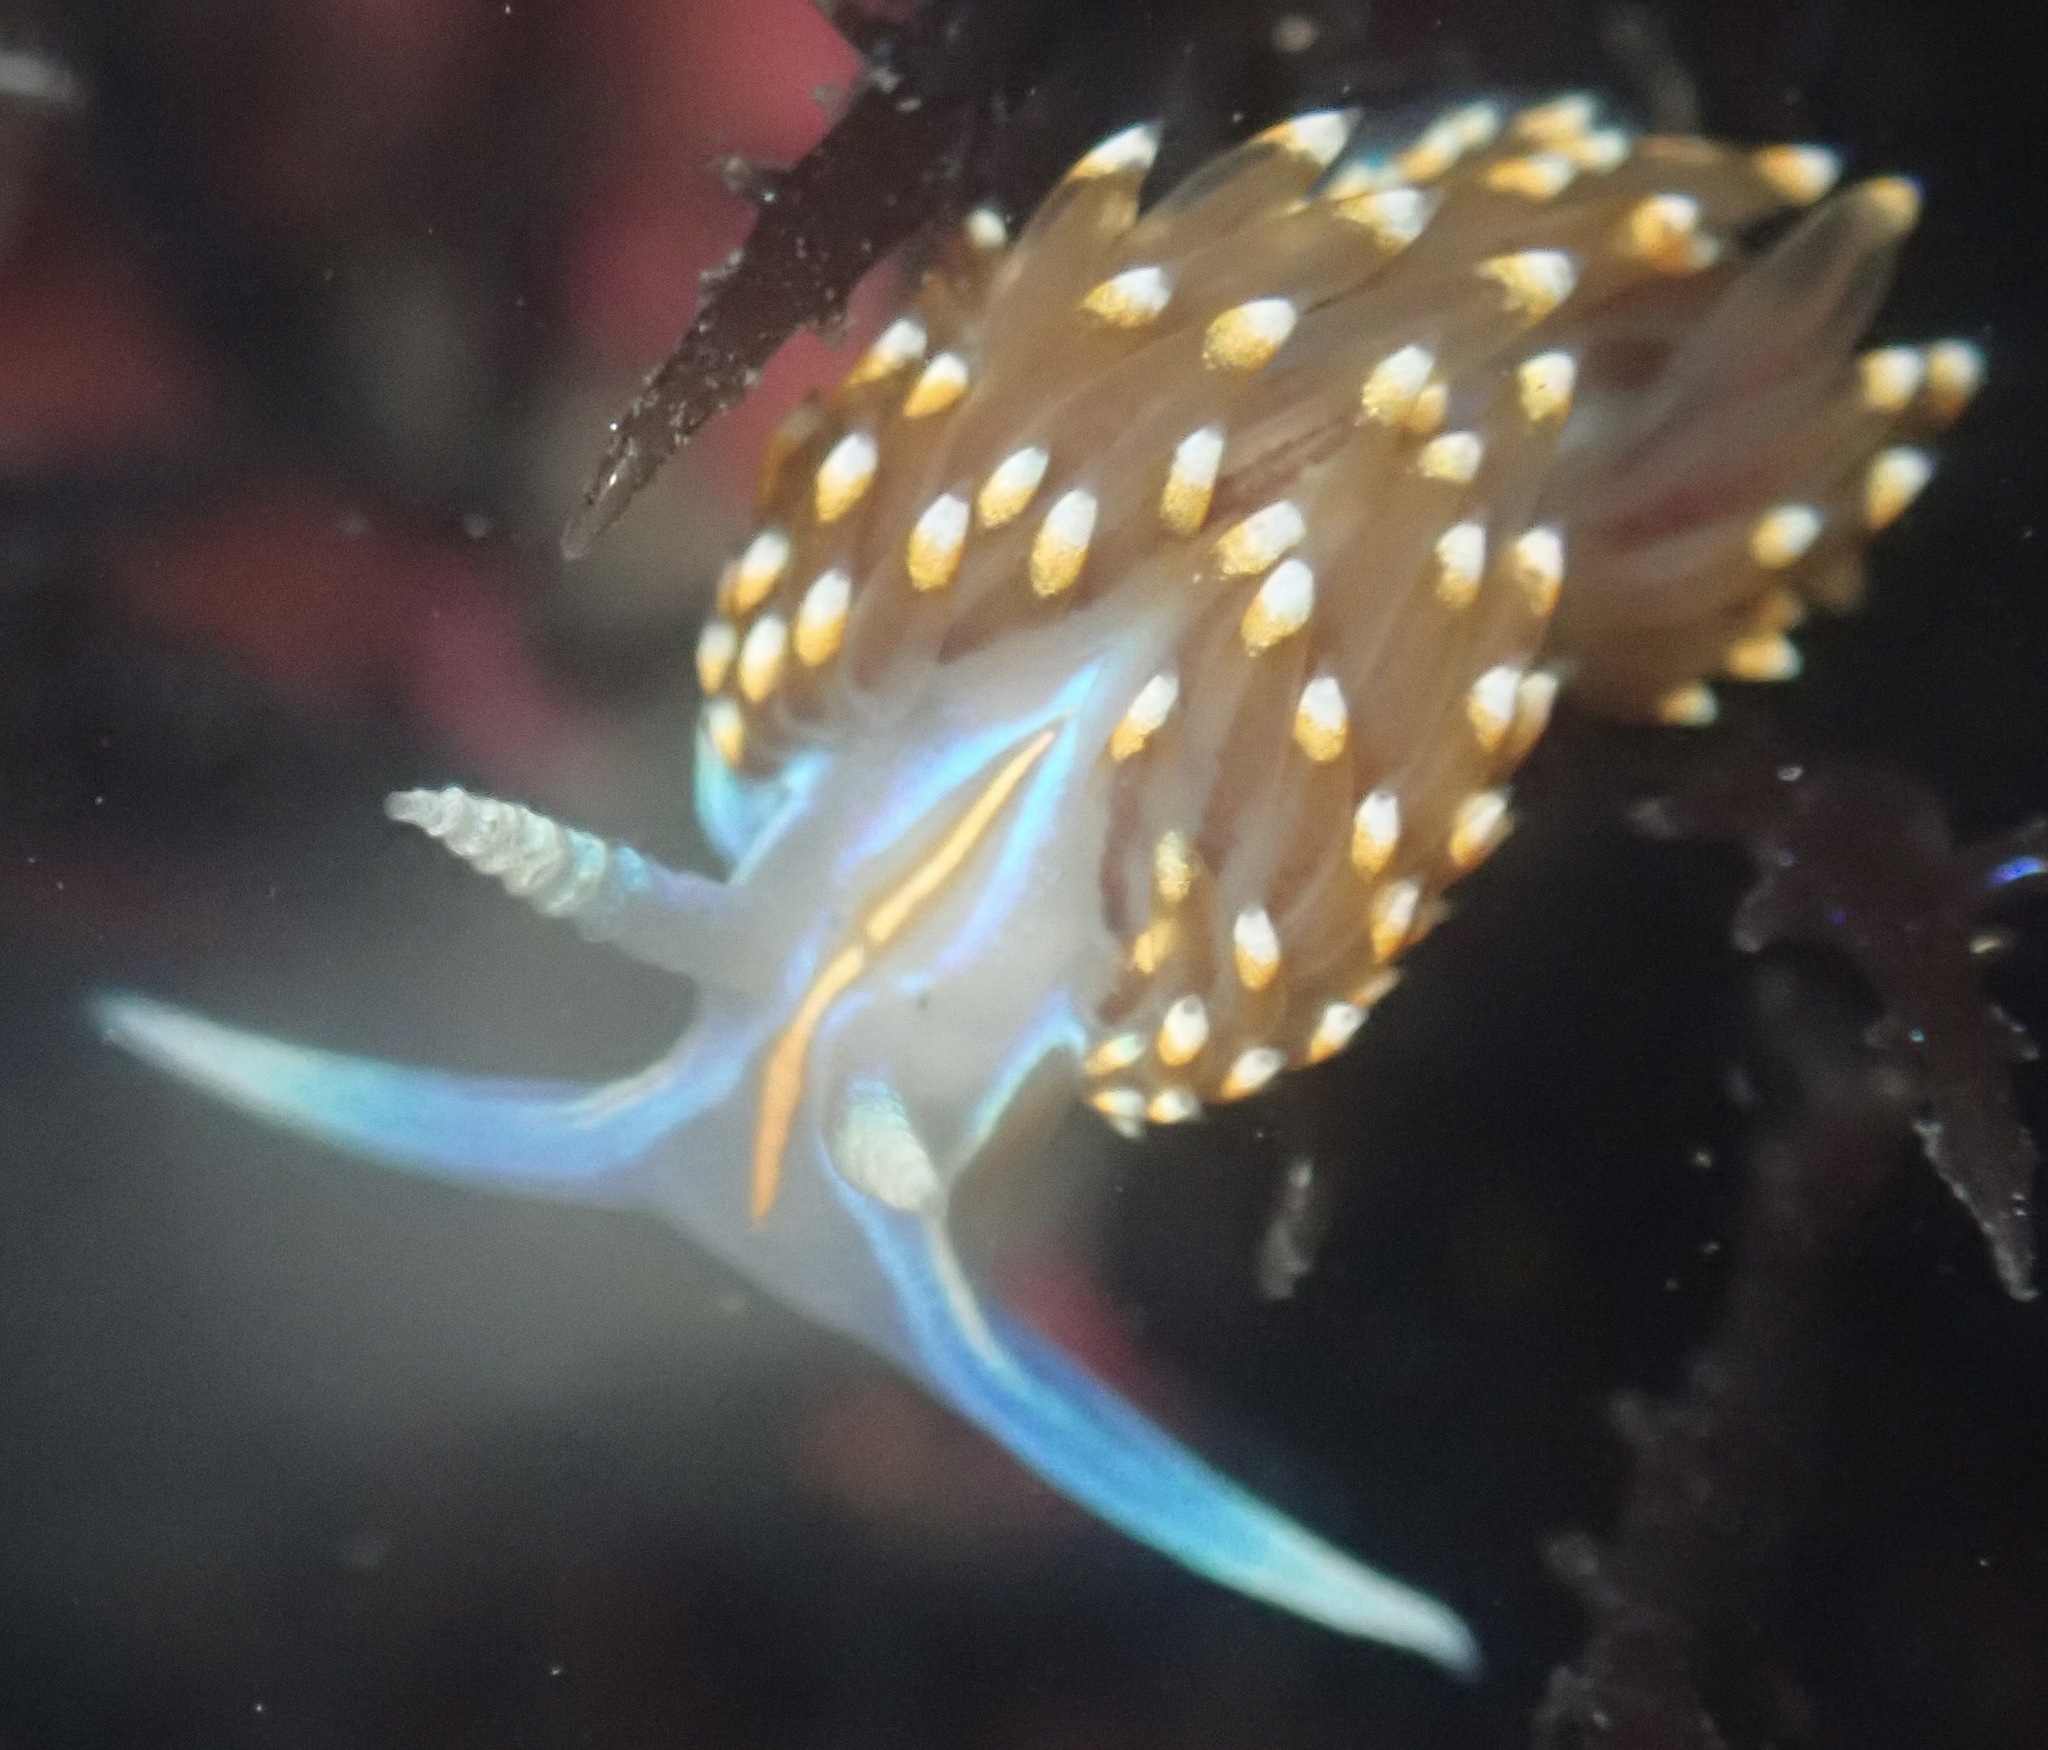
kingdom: Animalia
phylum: Mollusca
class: Gastropoda
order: Nudibranchia
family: Myrrhinidae
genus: Hermissenda
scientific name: Hermissenda opalescens
